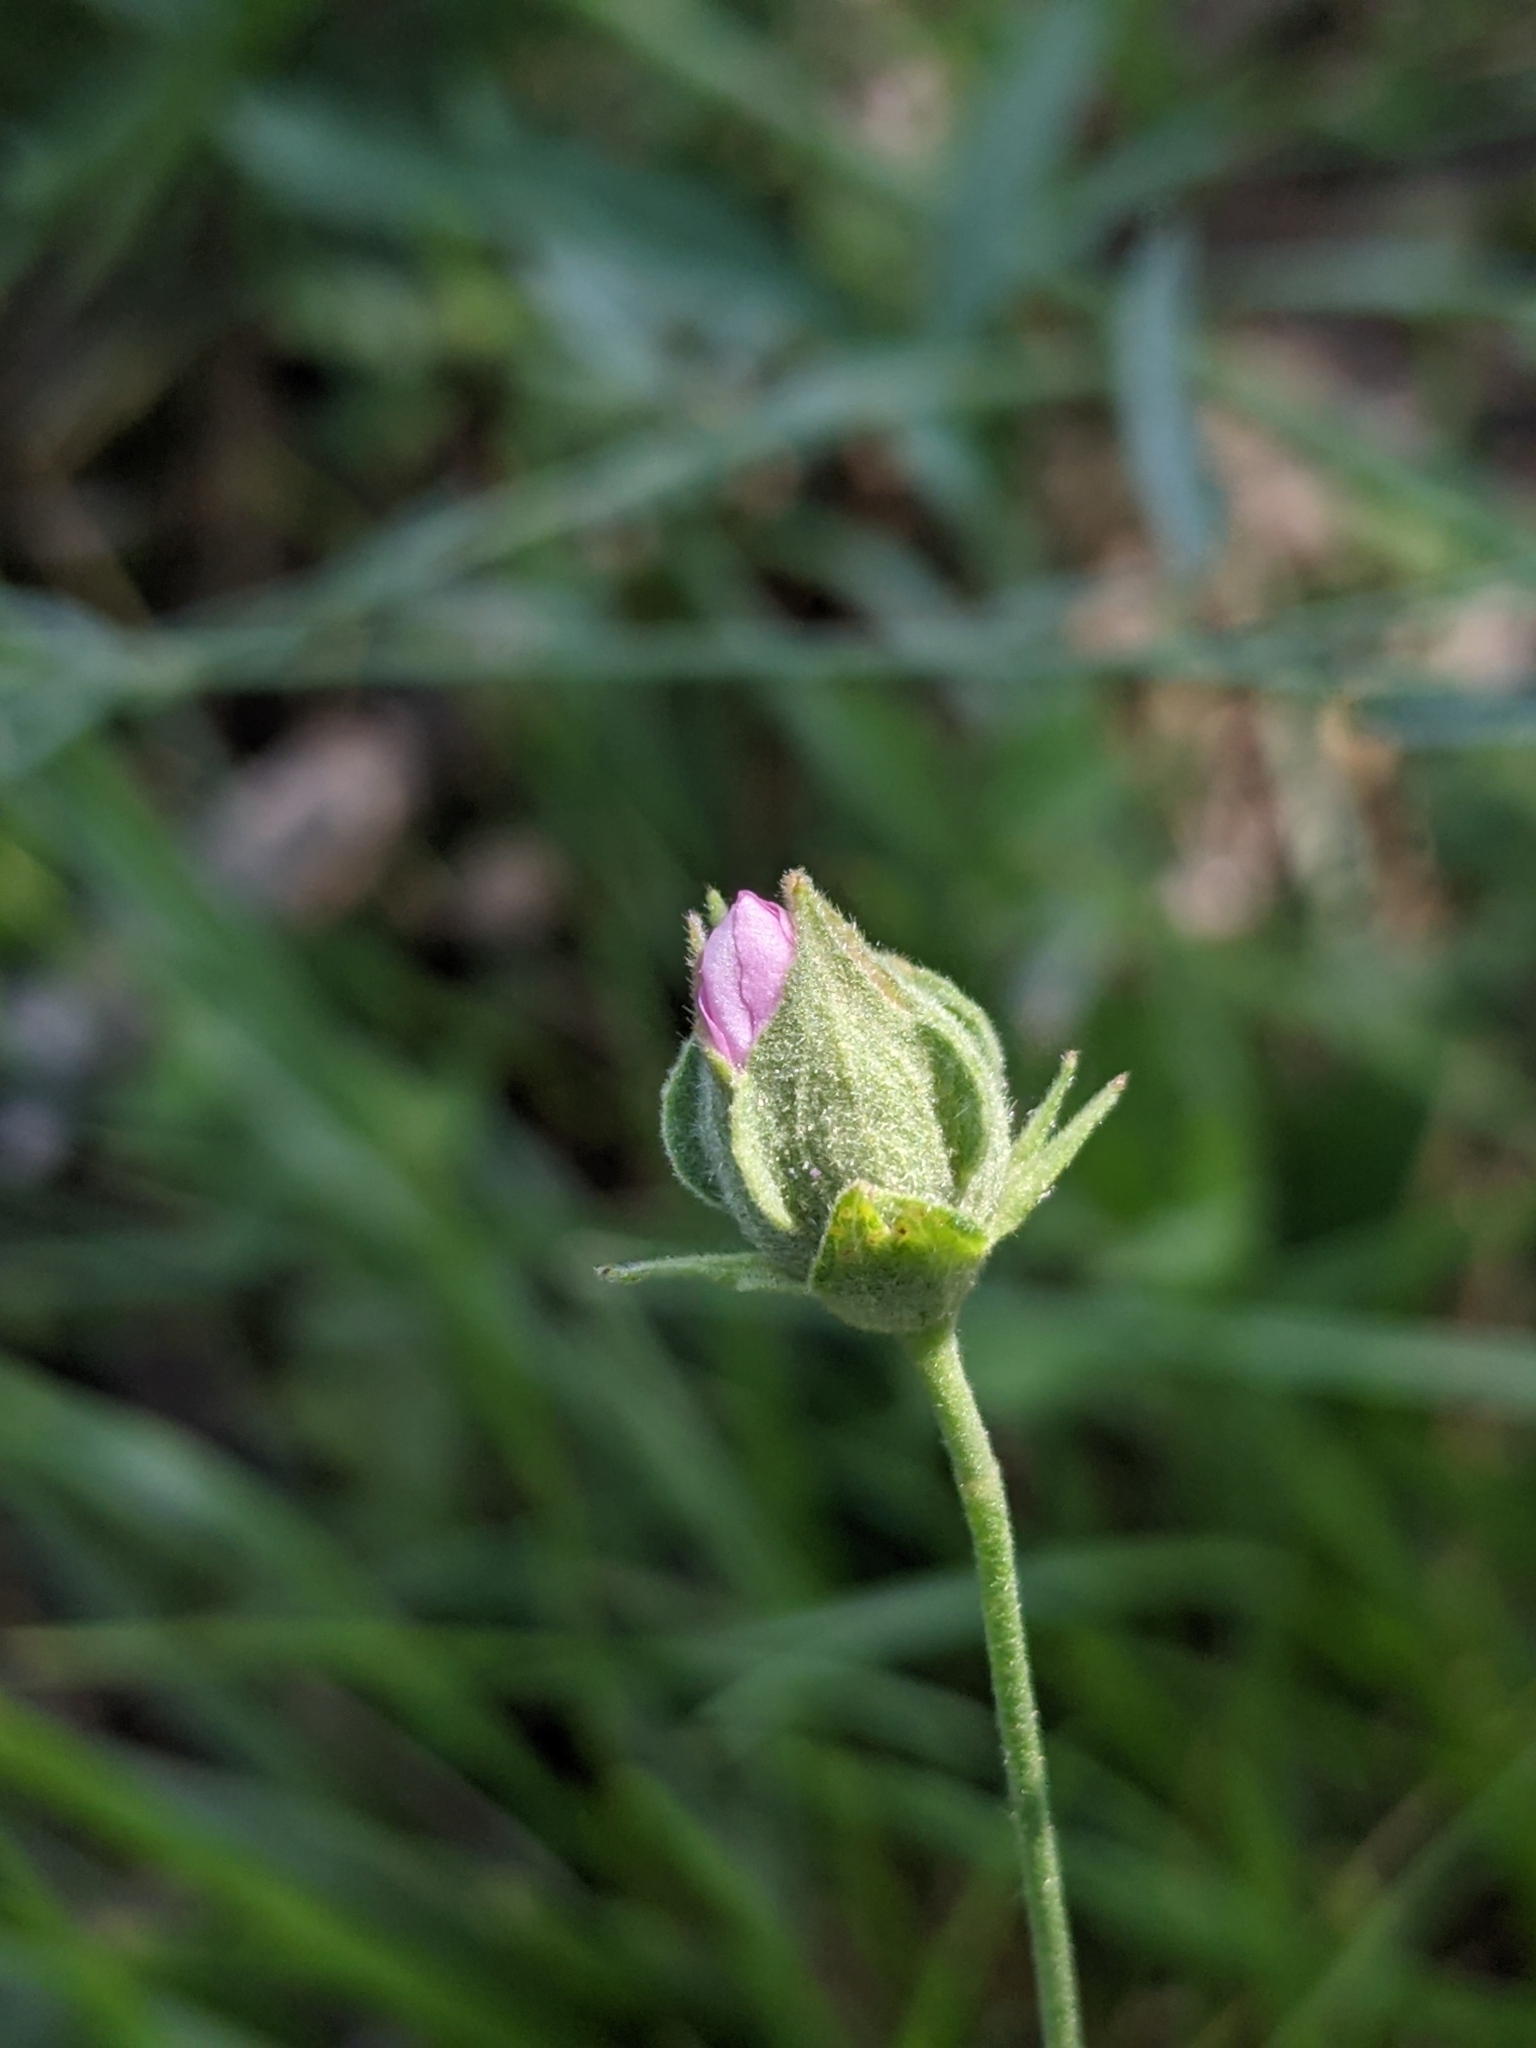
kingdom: Plantae
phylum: Tracheophyta
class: Magnoliopsida
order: Malvales
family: Malvaceae
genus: Althaea
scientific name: Althaea cannabina
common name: Palm-leaf marshmallow
